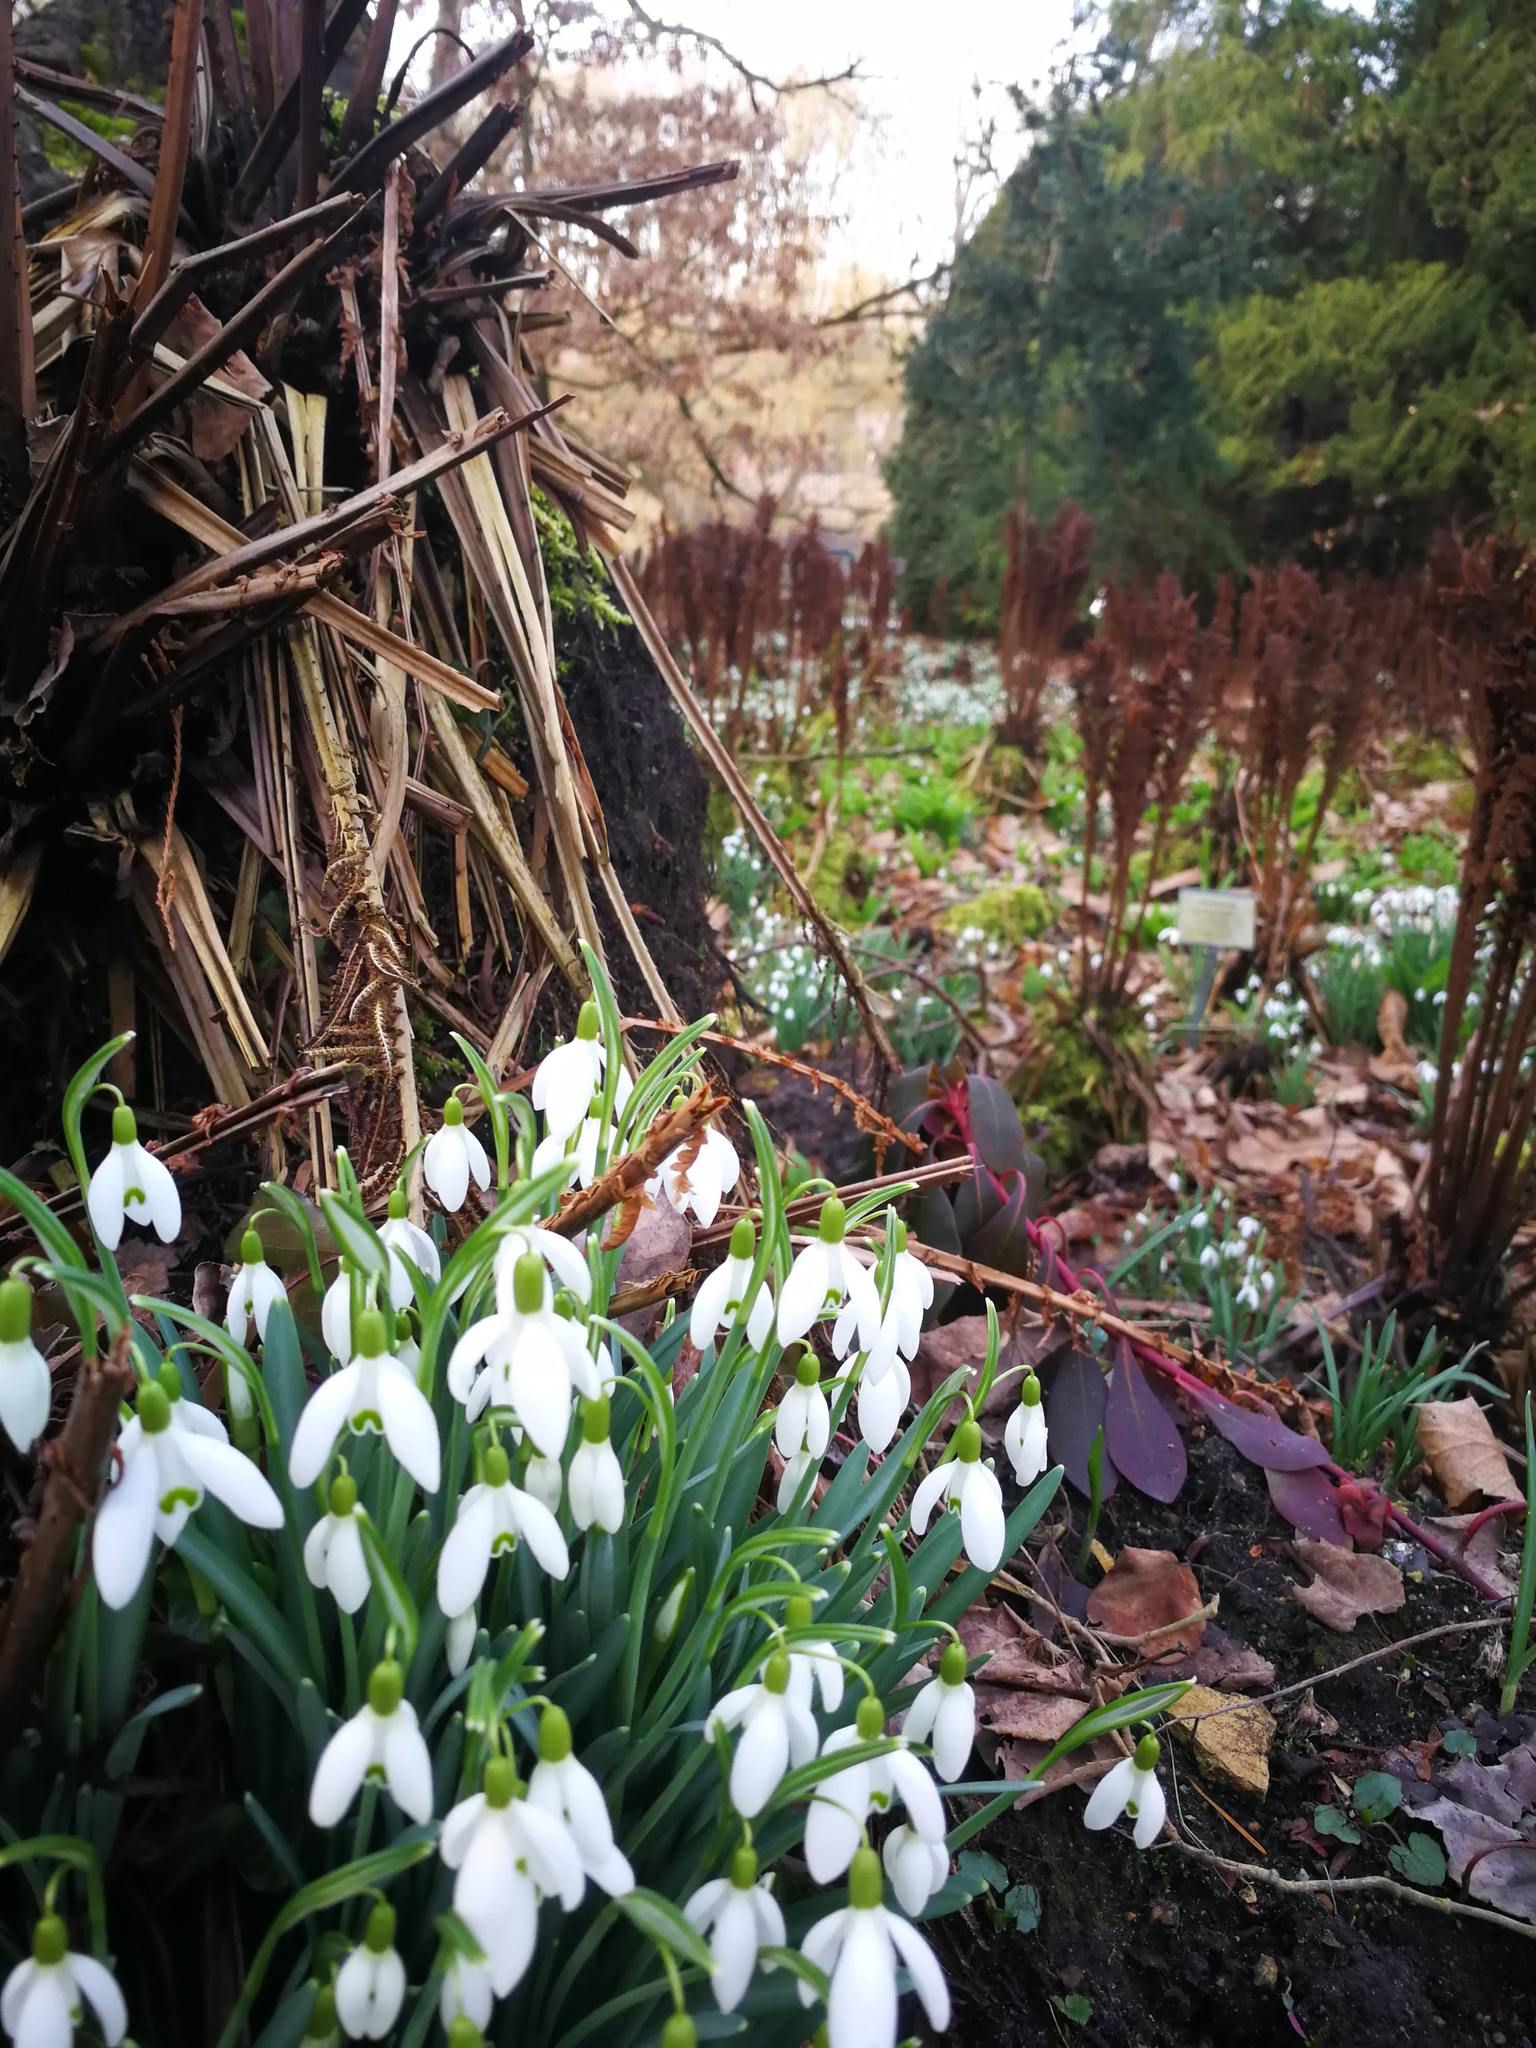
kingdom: Plantae
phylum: Tracheophyta
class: Liliopsida
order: Asparagales
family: Amaryllidaceae
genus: Galanthus
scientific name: Galanthus nivalis
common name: Snowdrop
